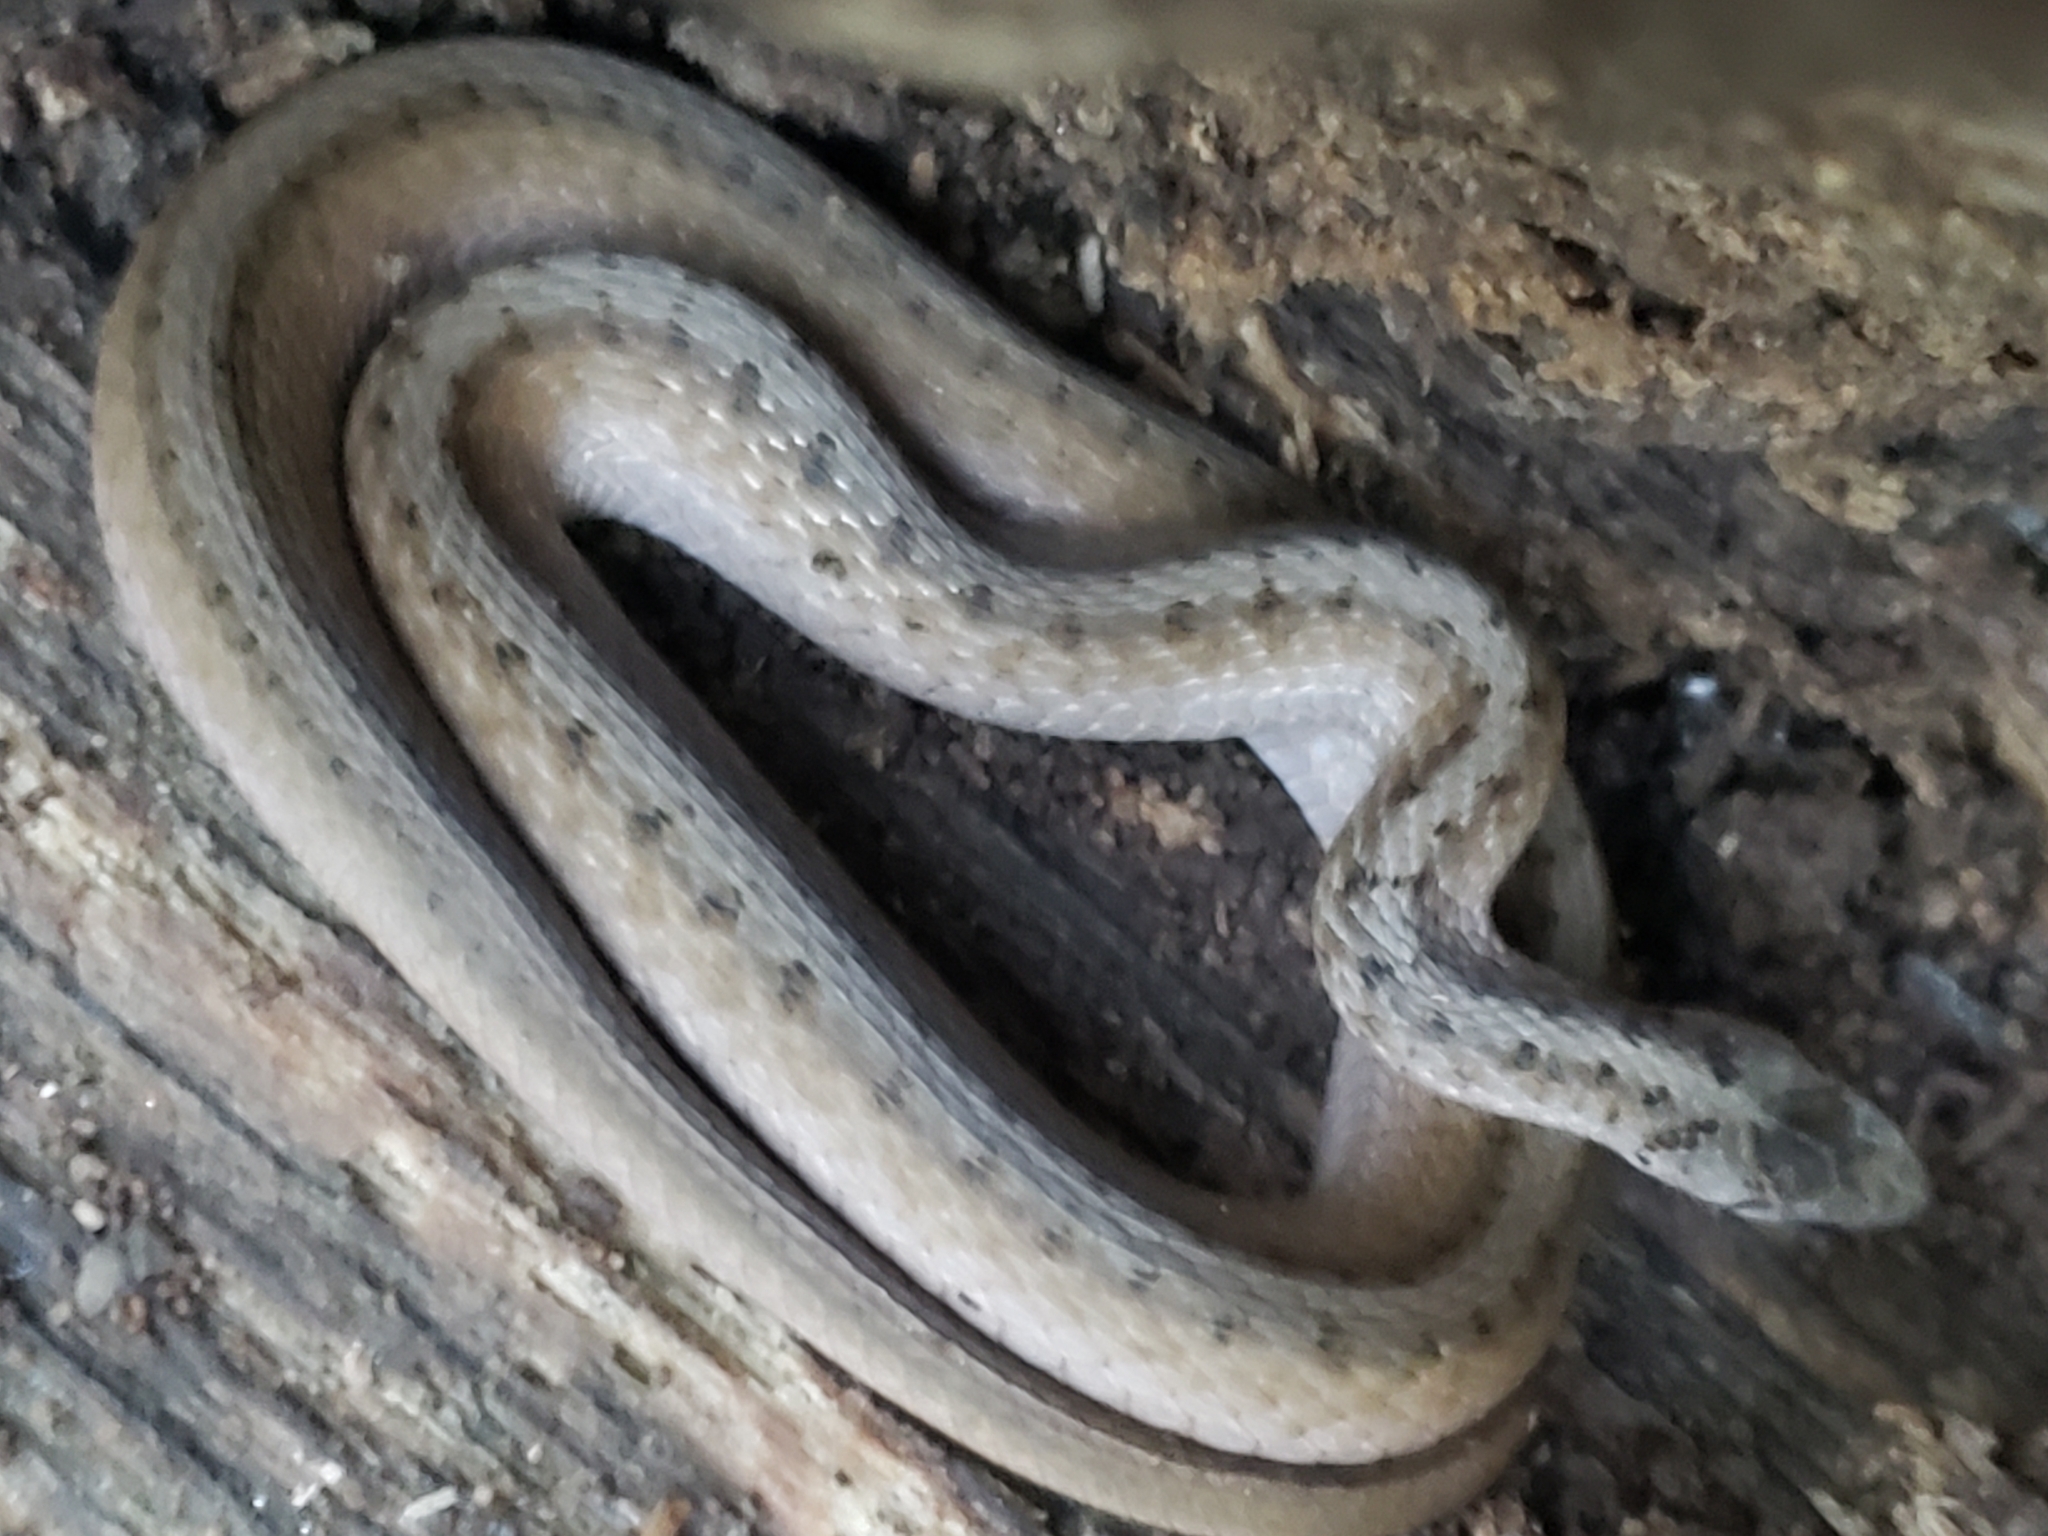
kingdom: Animalia
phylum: Chordata
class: Squamata
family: Colubridae
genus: Storeria
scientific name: Storeria dekayi
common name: (dekay’s) brown snake
